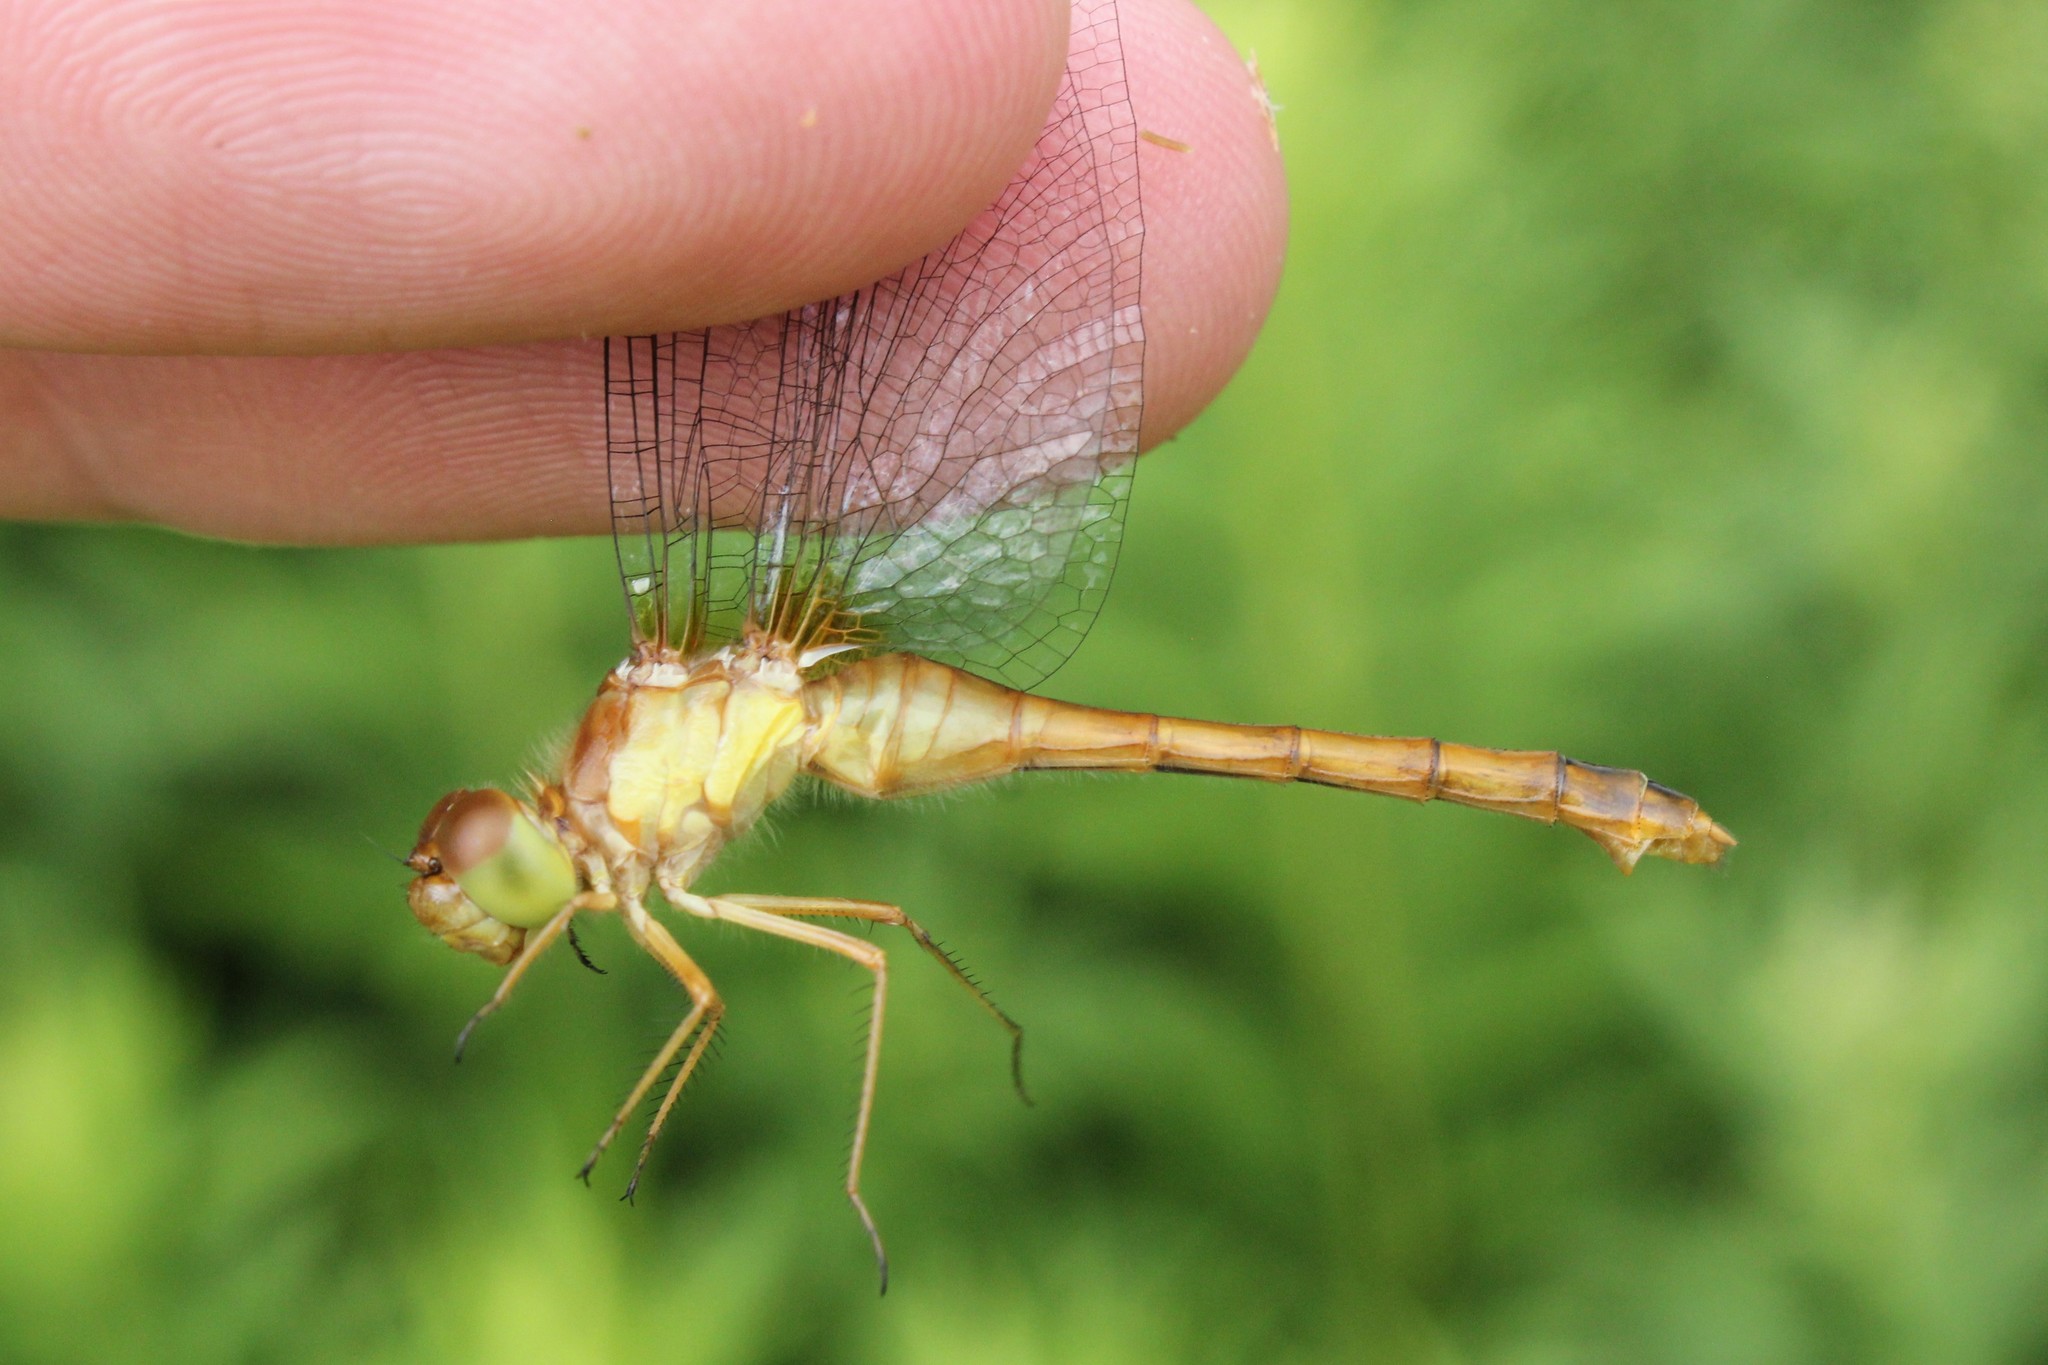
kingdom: Animalia
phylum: Arthropoda
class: Insecta
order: Odonata
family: Libellulidae
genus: Sympetrum
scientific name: Sympetrum vicinum
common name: Autumn meadowhawk
